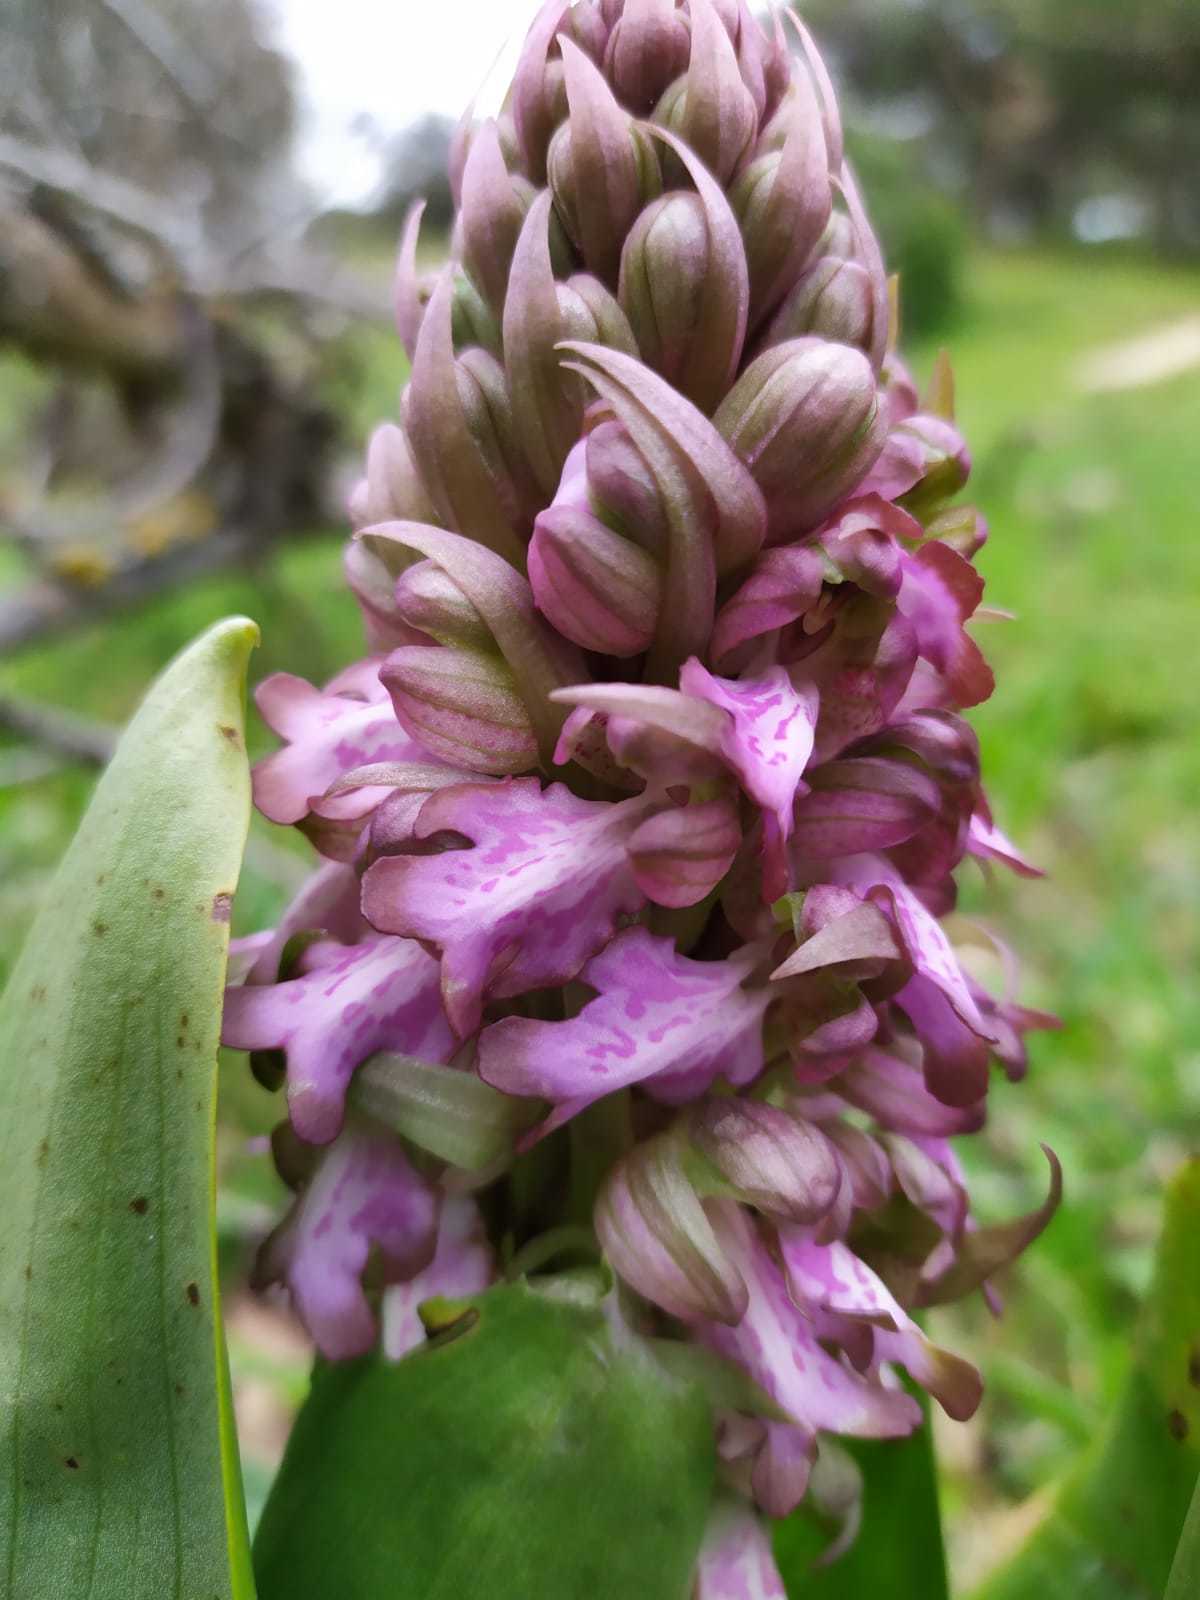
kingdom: Plantae
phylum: Tracheophyta
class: Liliopsida
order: Asparagales
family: Orchidaceae
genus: Himantoglossum
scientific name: Himantoglossum robertianum
